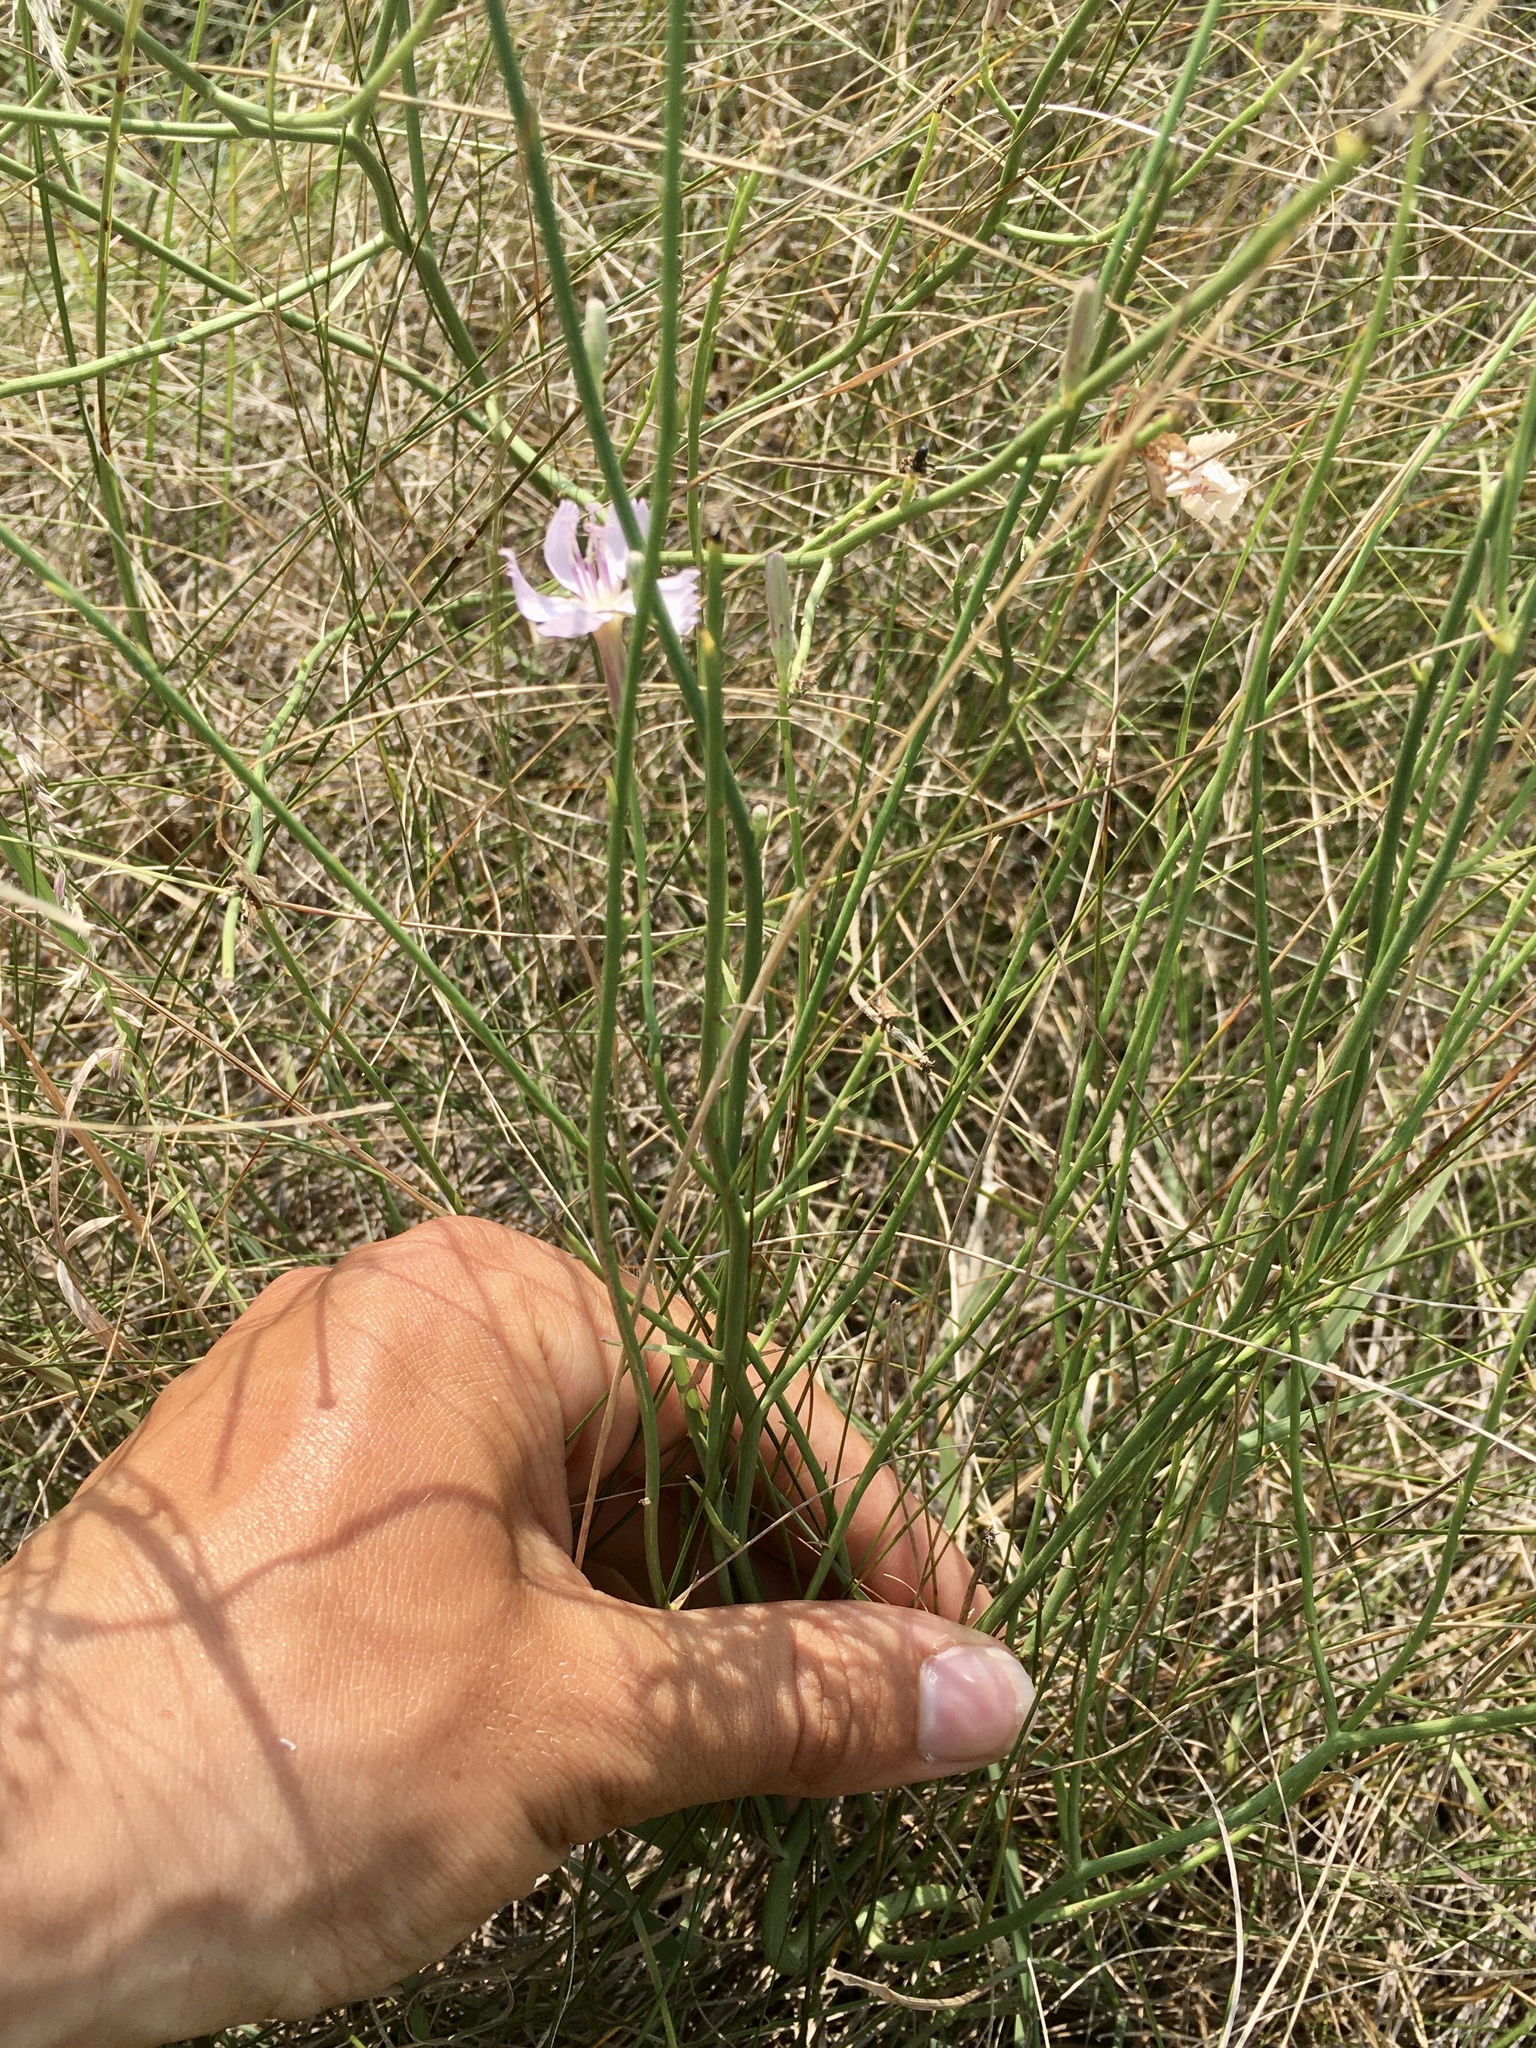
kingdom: Plantae
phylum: Tracheophyta
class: Magnoliopsida
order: Asterales
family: Asteraceae
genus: Lygodesmia
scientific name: Lygodesmia juncea
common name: Common skeletonweed
